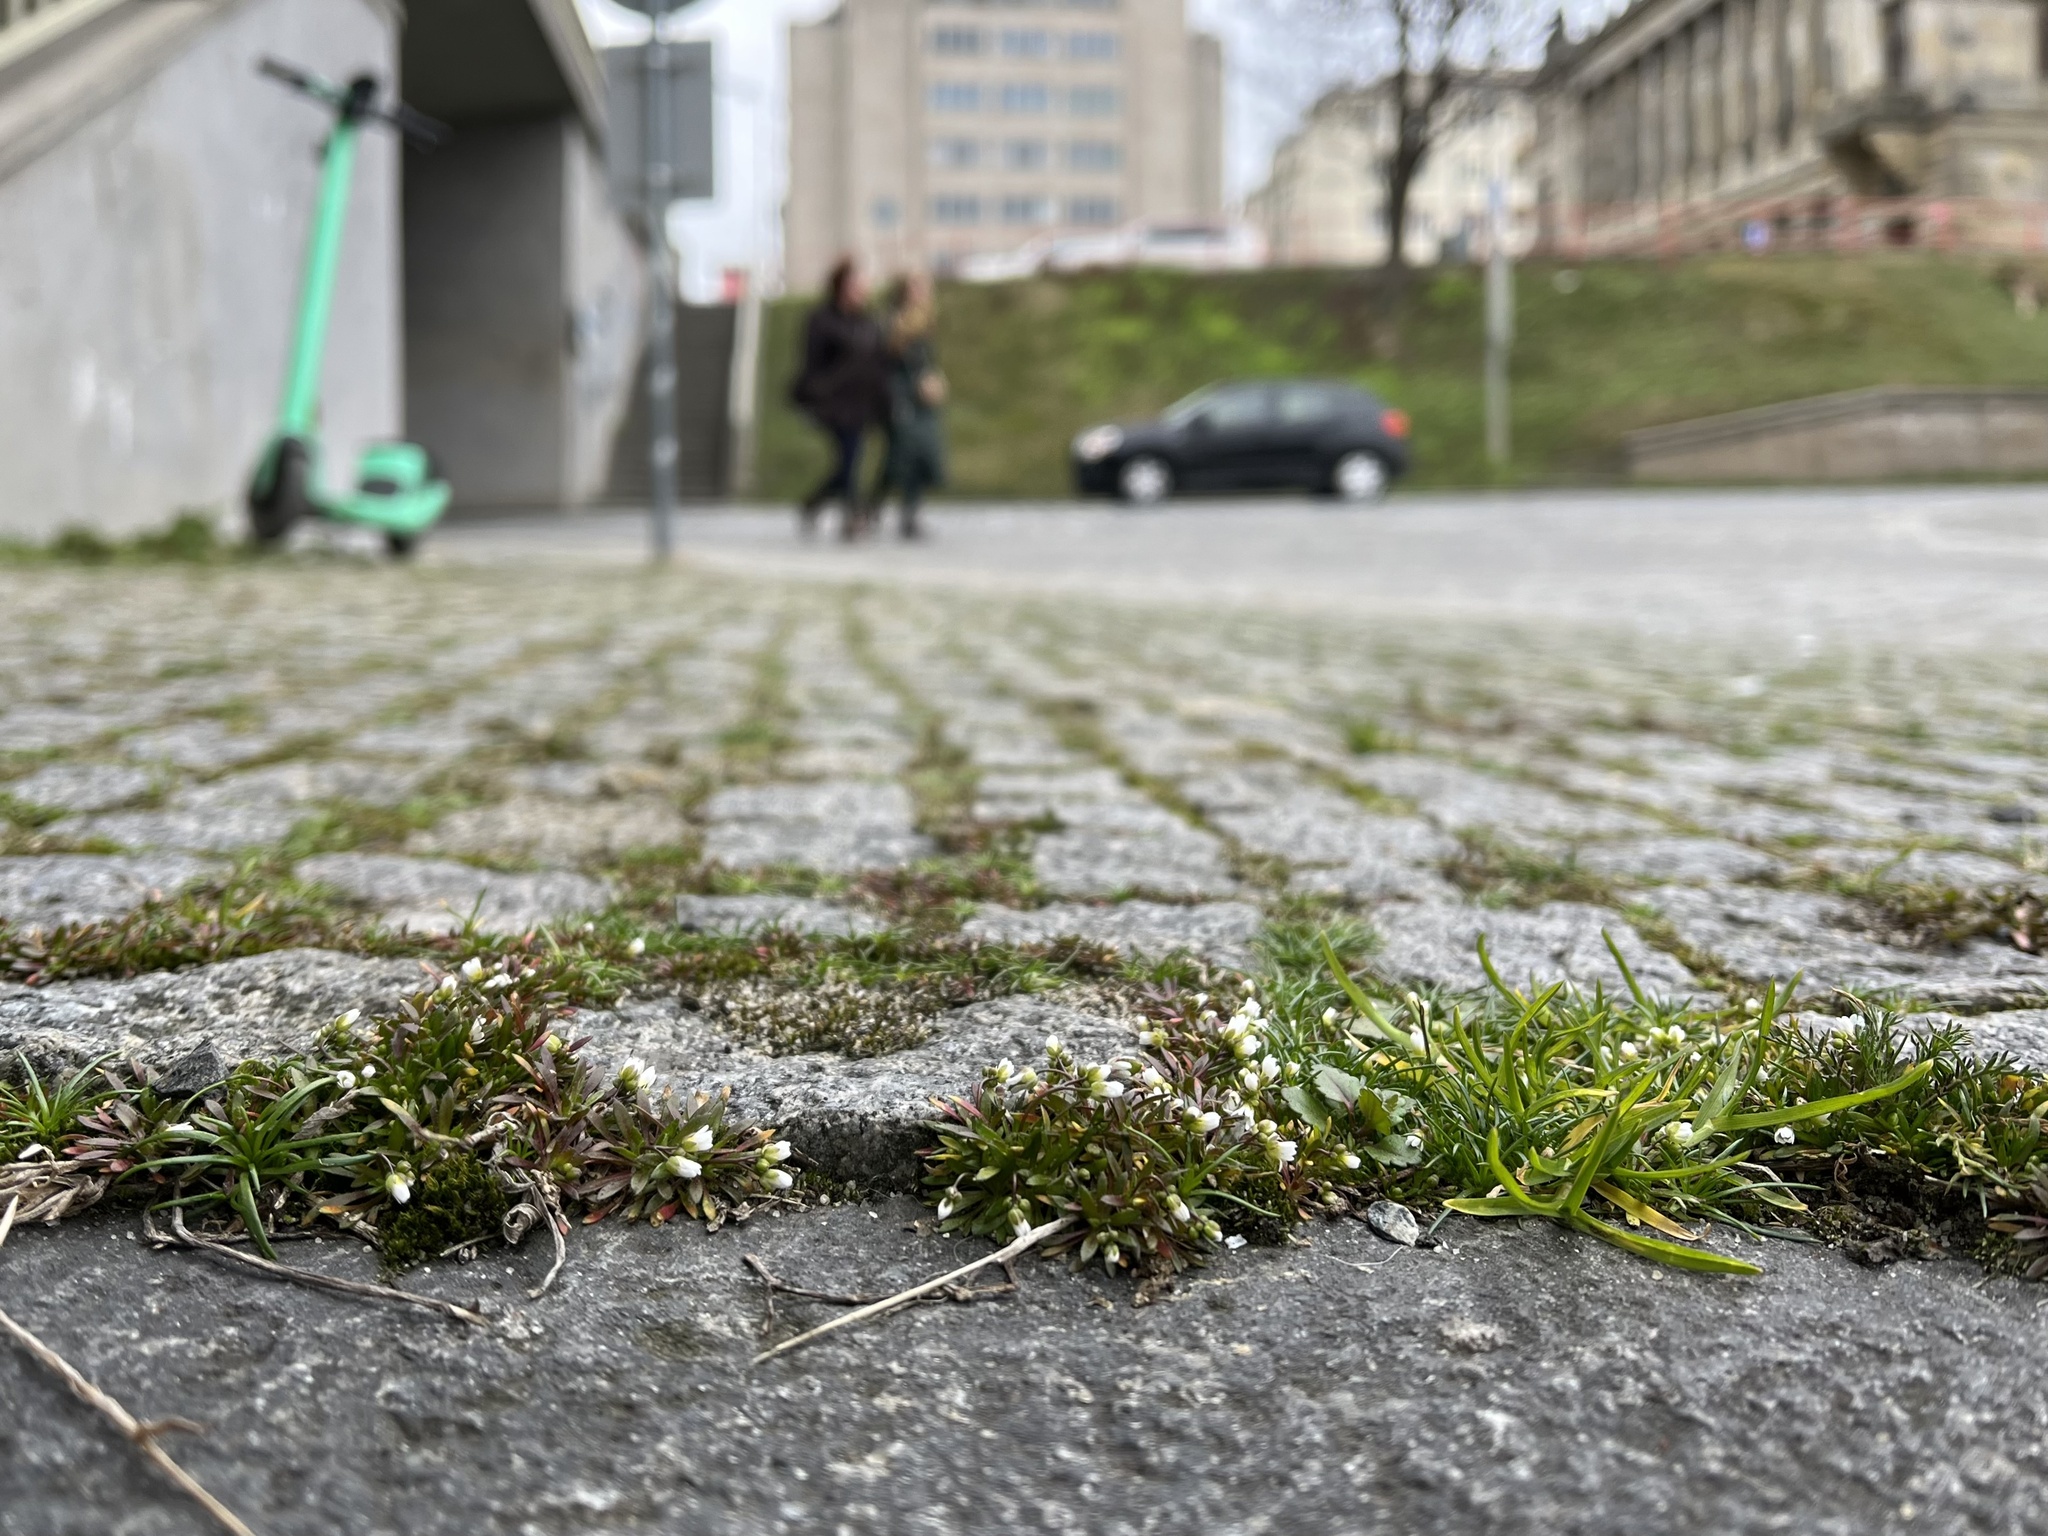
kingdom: Plantae
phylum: Tracheophyta
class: Magnoliopsida
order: Brassicales
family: Brassicaceae
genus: Draba
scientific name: Draba verna
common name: Spring draba
